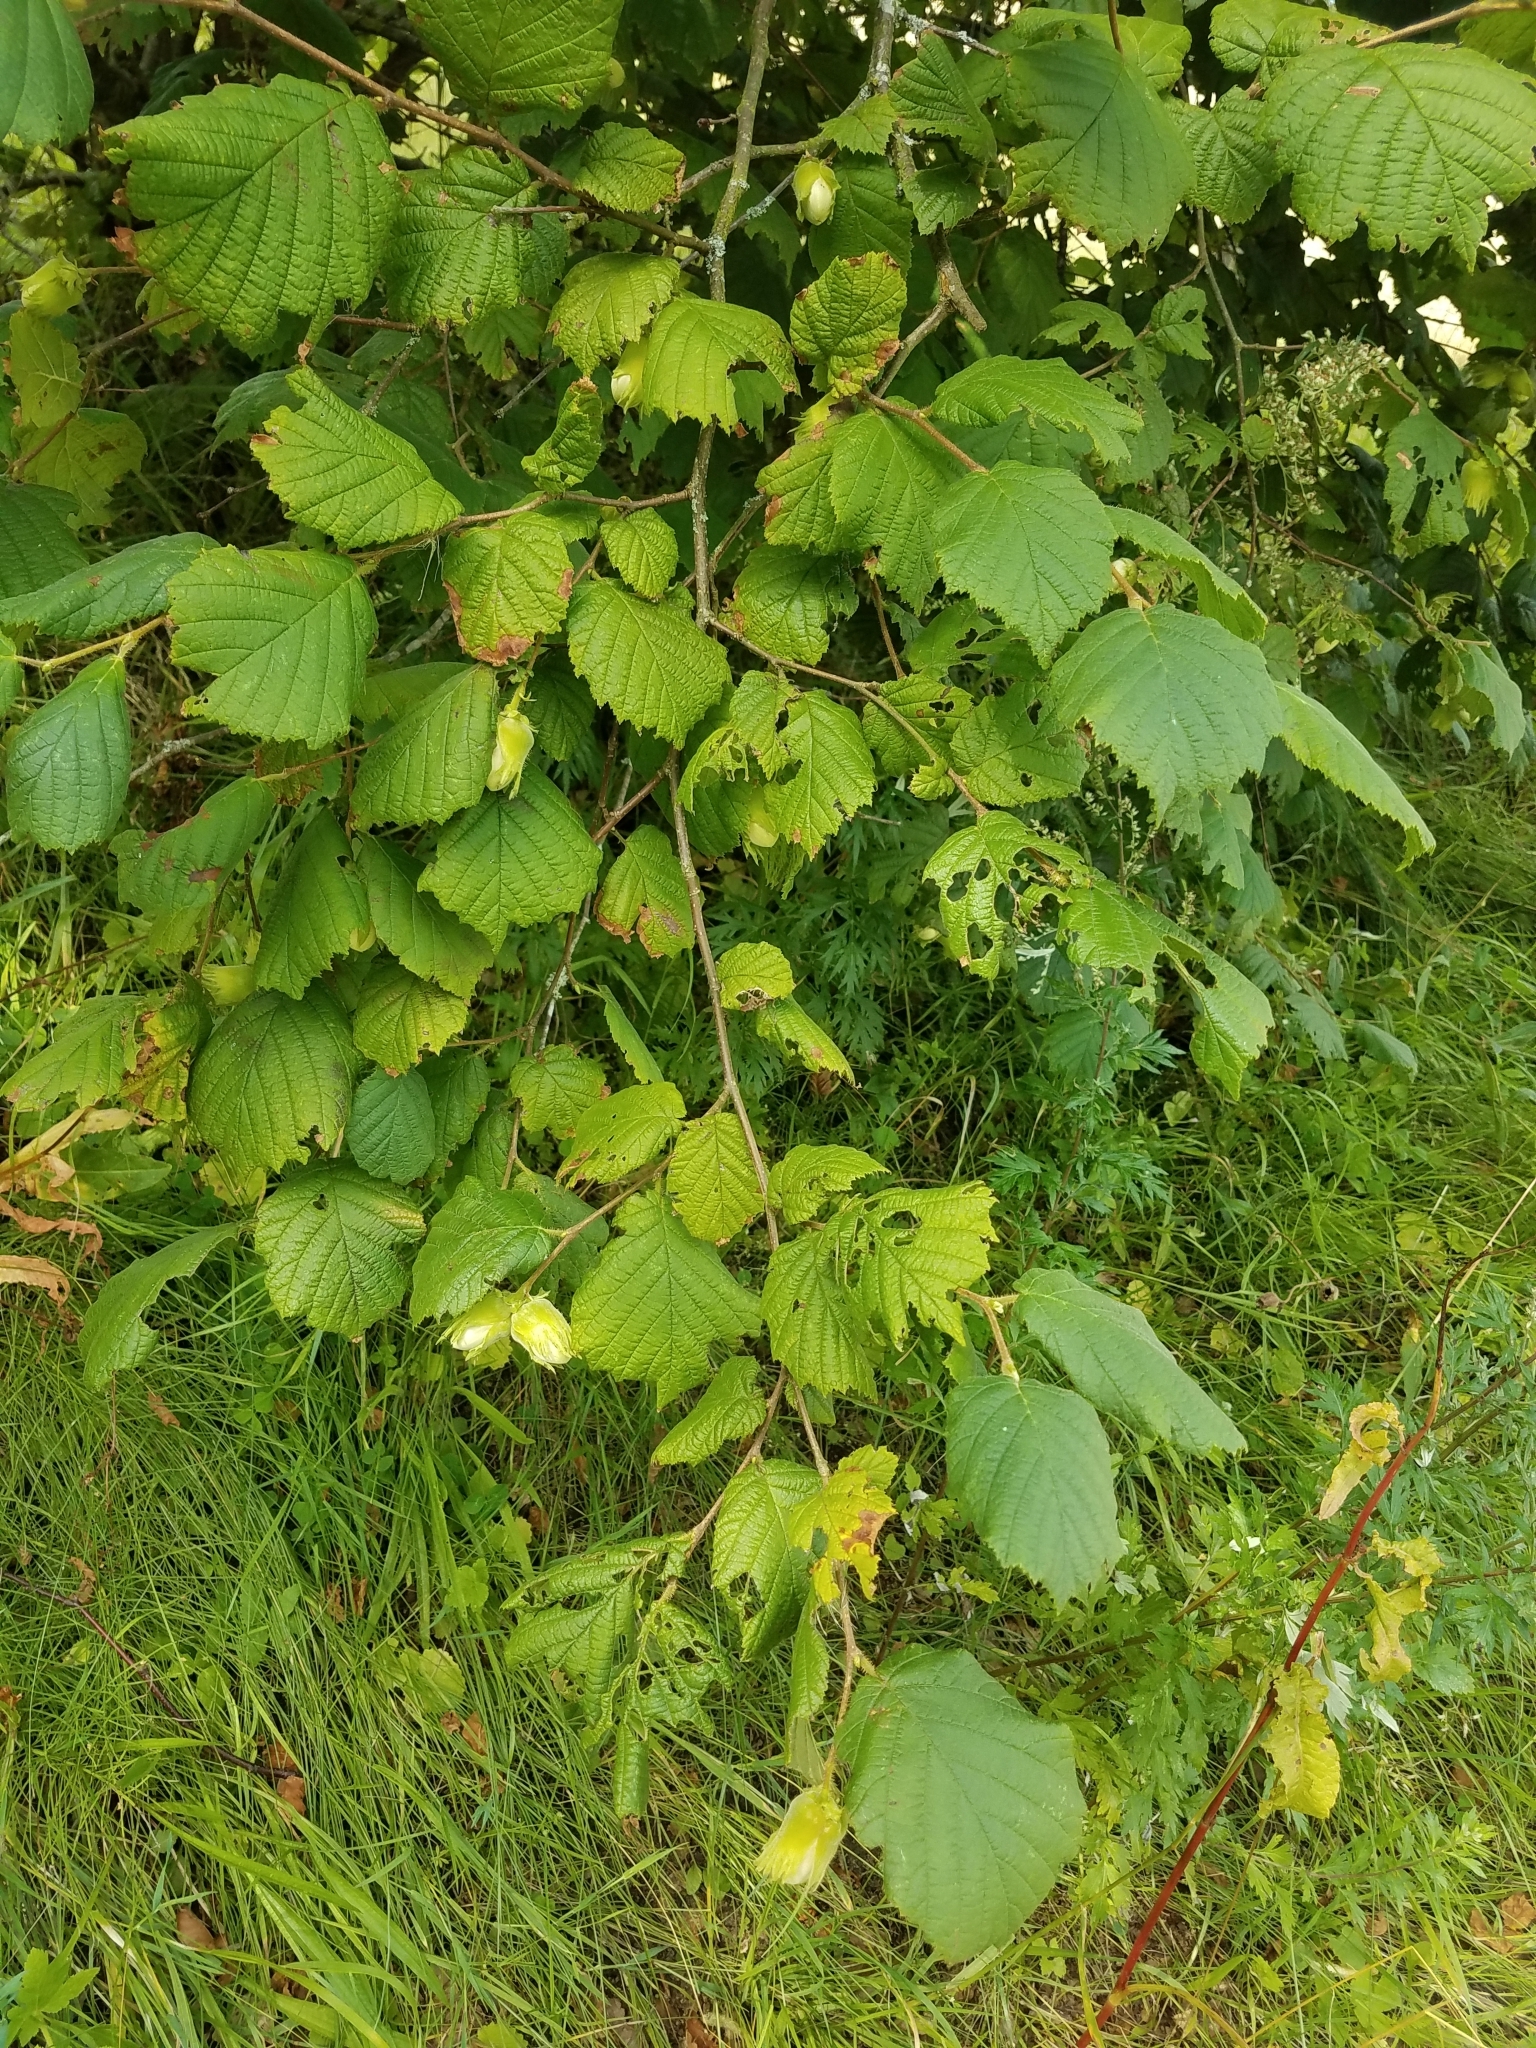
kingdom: Plantae
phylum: Tracheophyta
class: Magnoliopsida
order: Fagales
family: Betulaceae
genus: Corylus
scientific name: Corylus avellana
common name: European hazel
